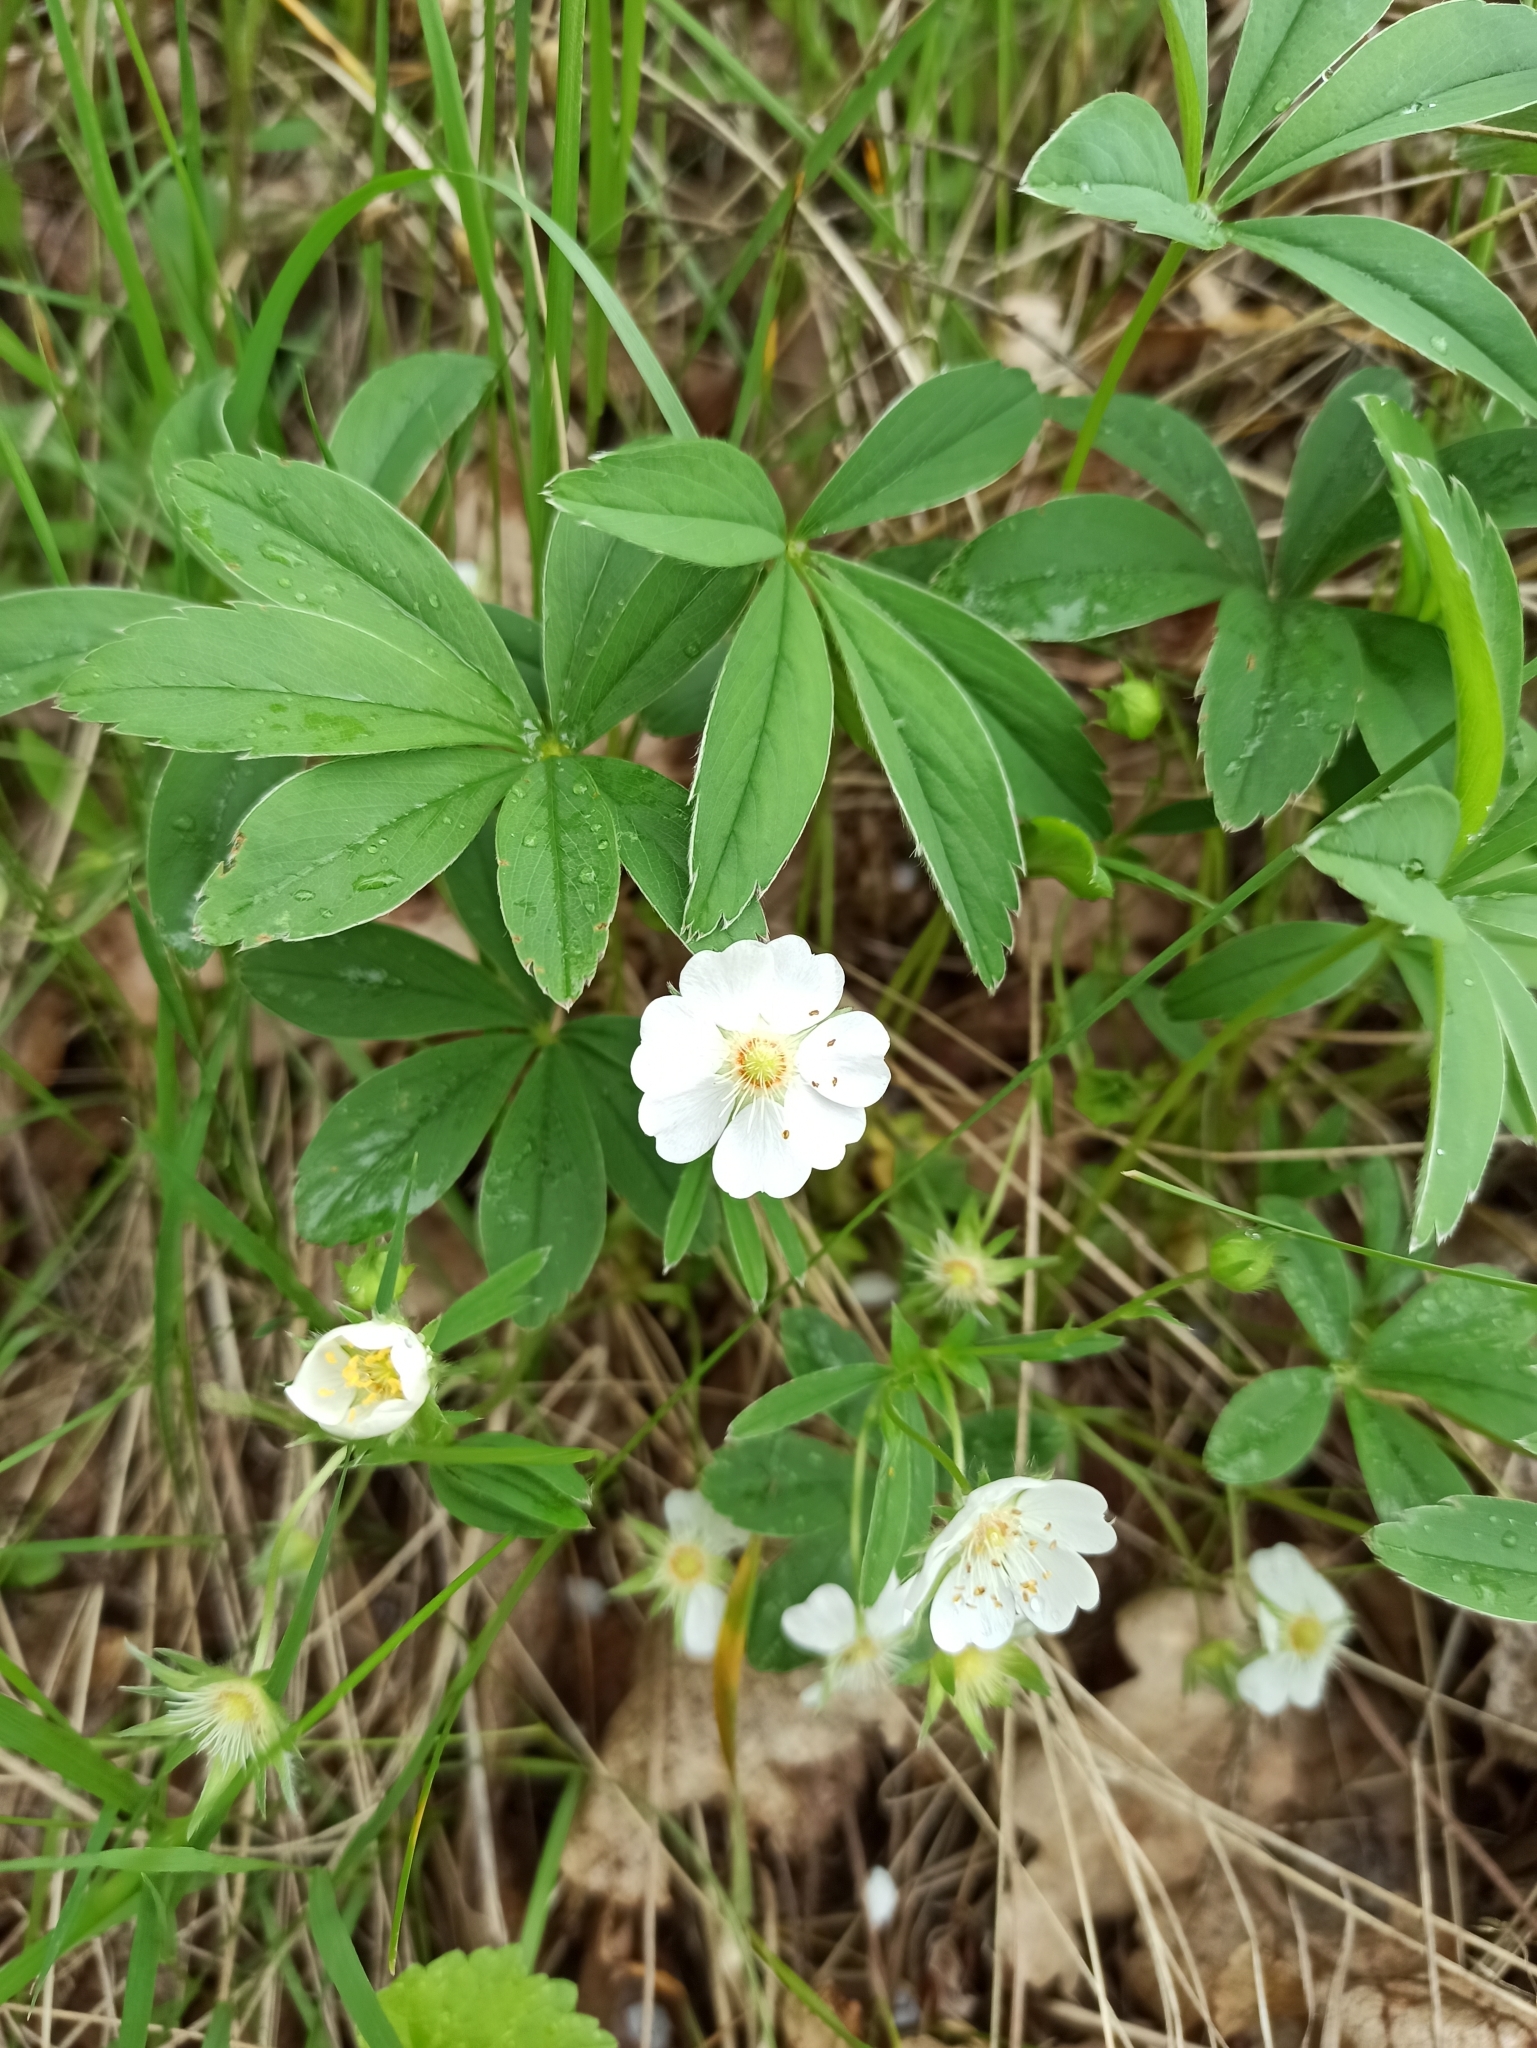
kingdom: Plantae
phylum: Tracheophyta
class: Magnoliopsida
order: Rosales
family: Rosaceae
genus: Potentilla
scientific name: Potentilla alba
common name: White cinquefoil
